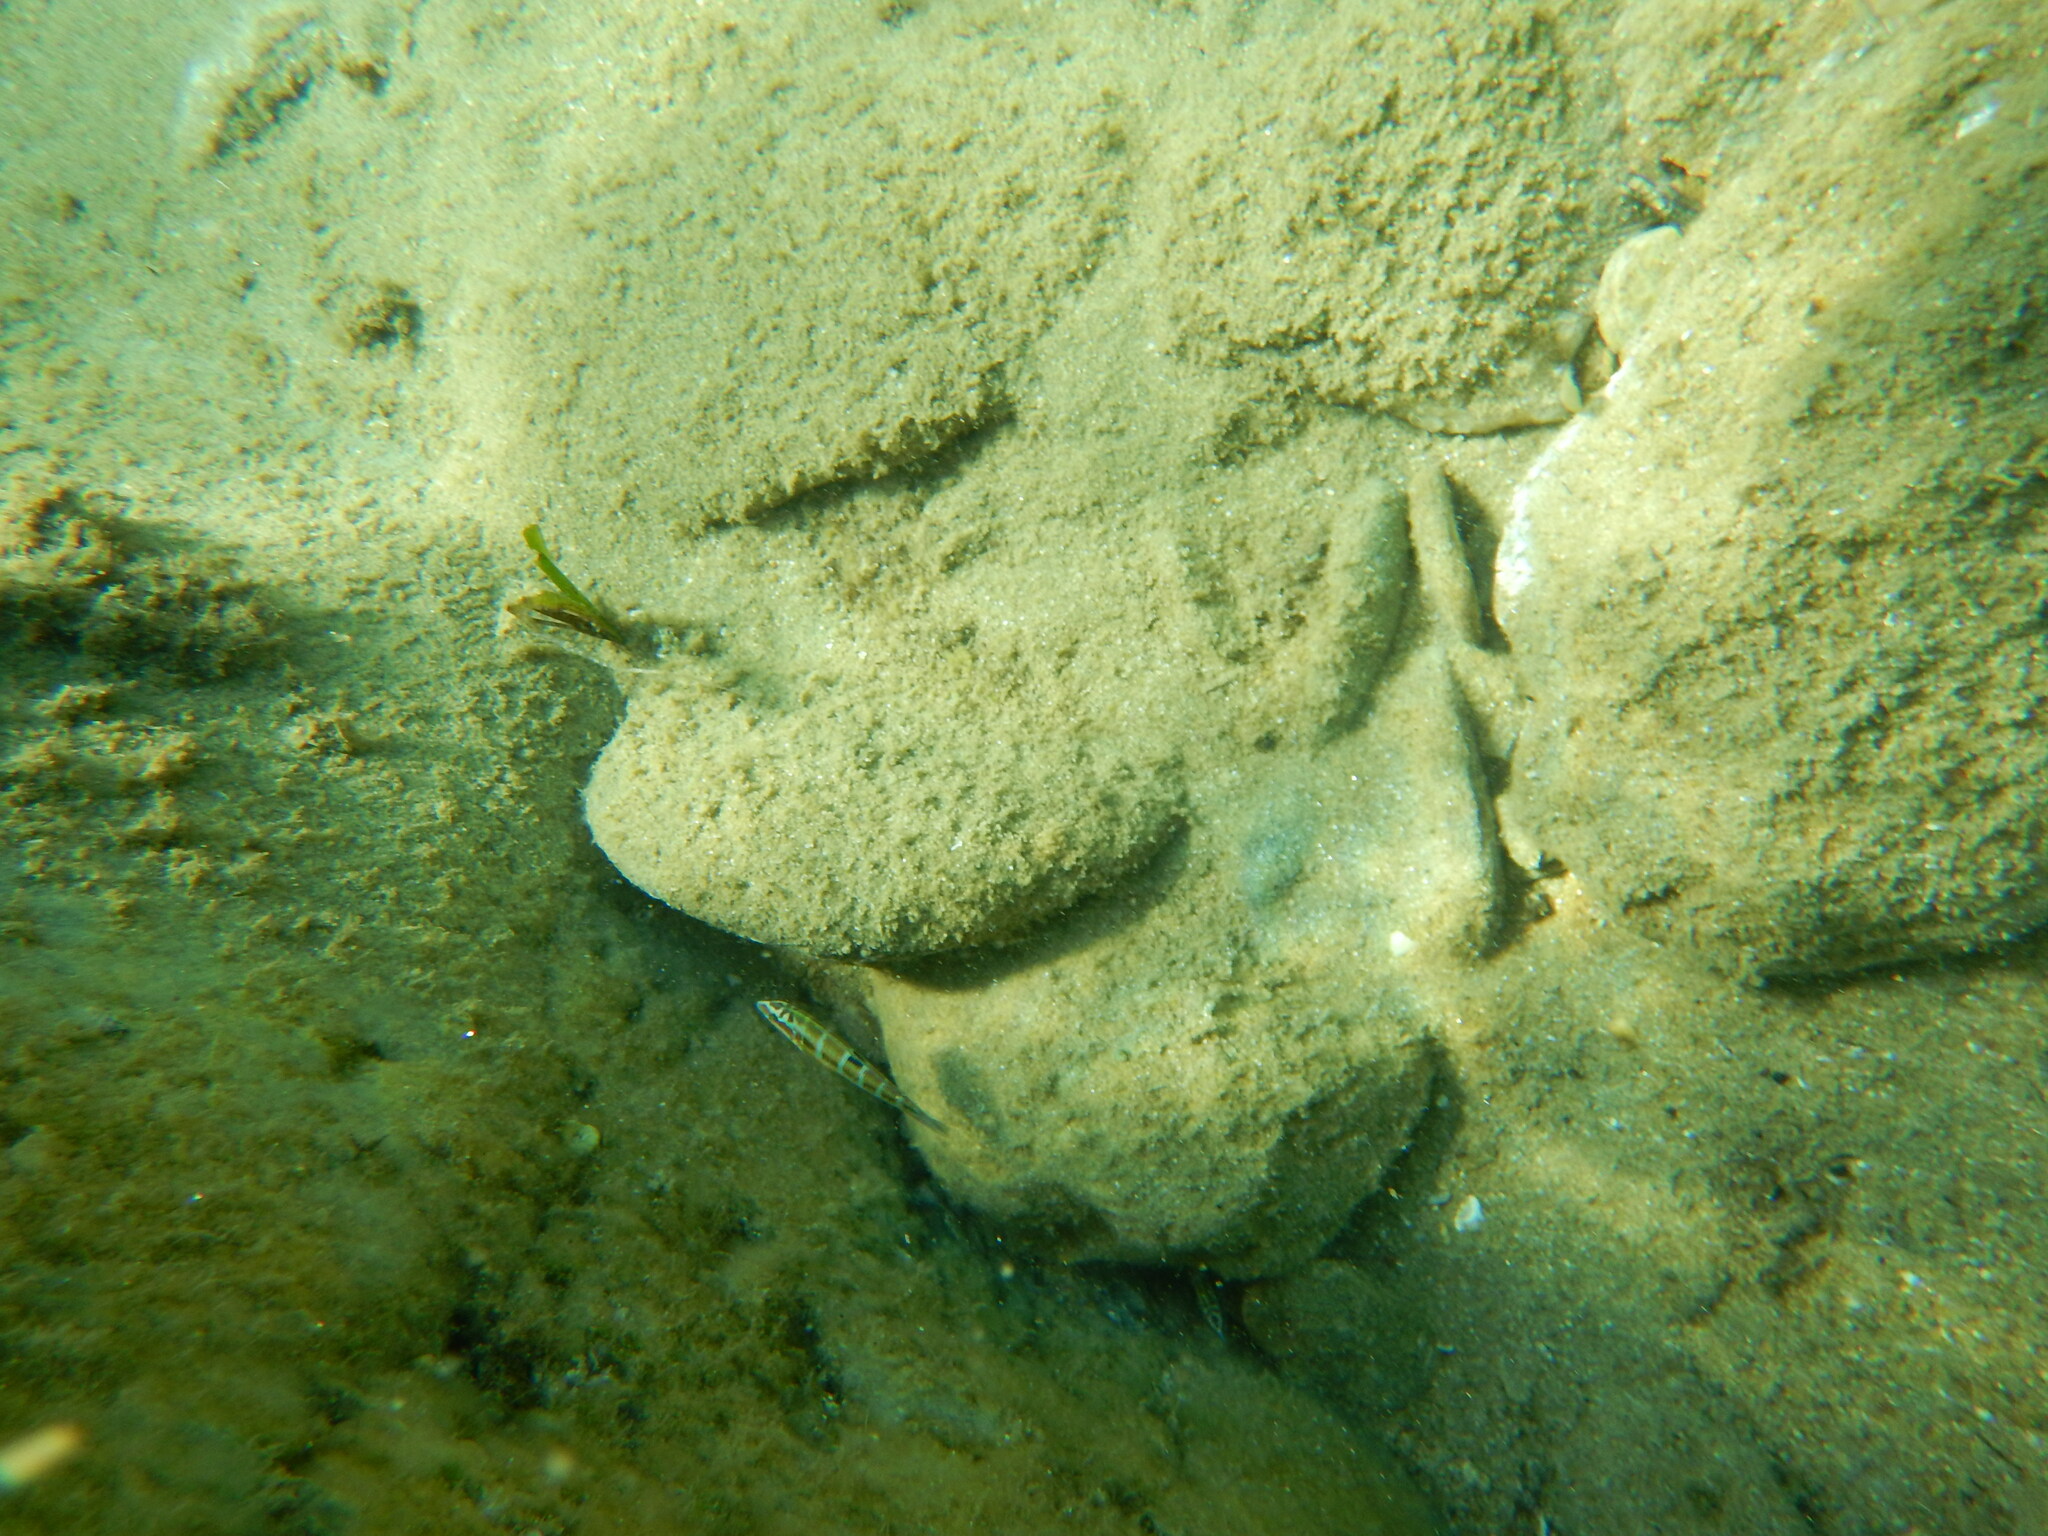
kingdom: Animalia
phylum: Chordata
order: Perciformes
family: Labridae
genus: Thalassoma
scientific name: Thalassoma pavo
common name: Ornate wrasse
